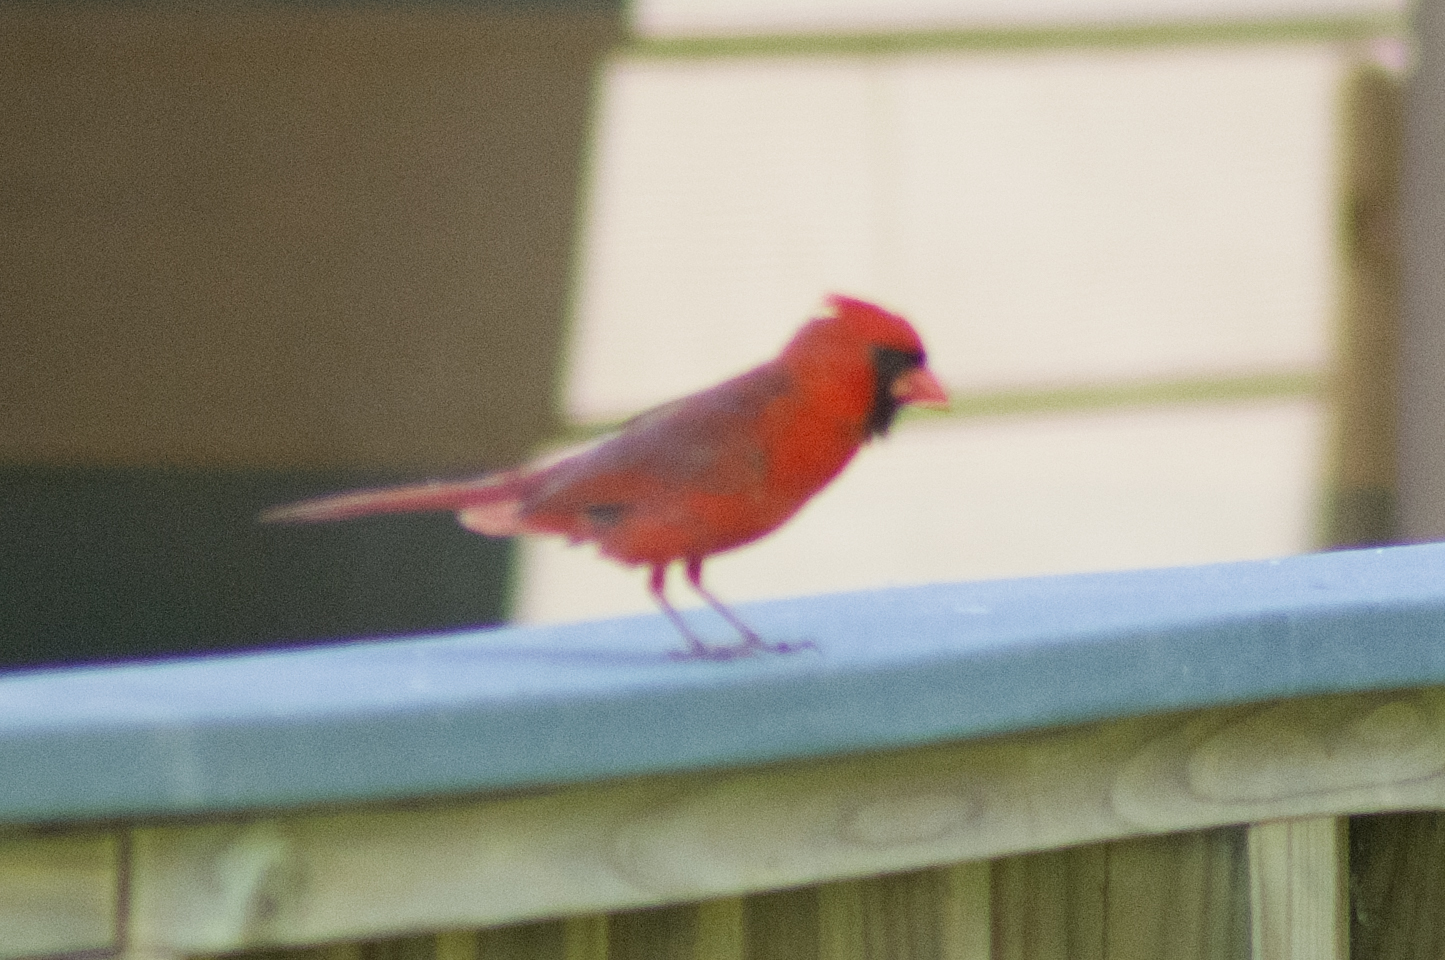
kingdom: Animalia
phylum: Chordata
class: Aves
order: Passeriformes
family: Cardinalidae
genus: Cardinalis
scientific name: Cardinalis cardinalis
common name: Northern cardinal
